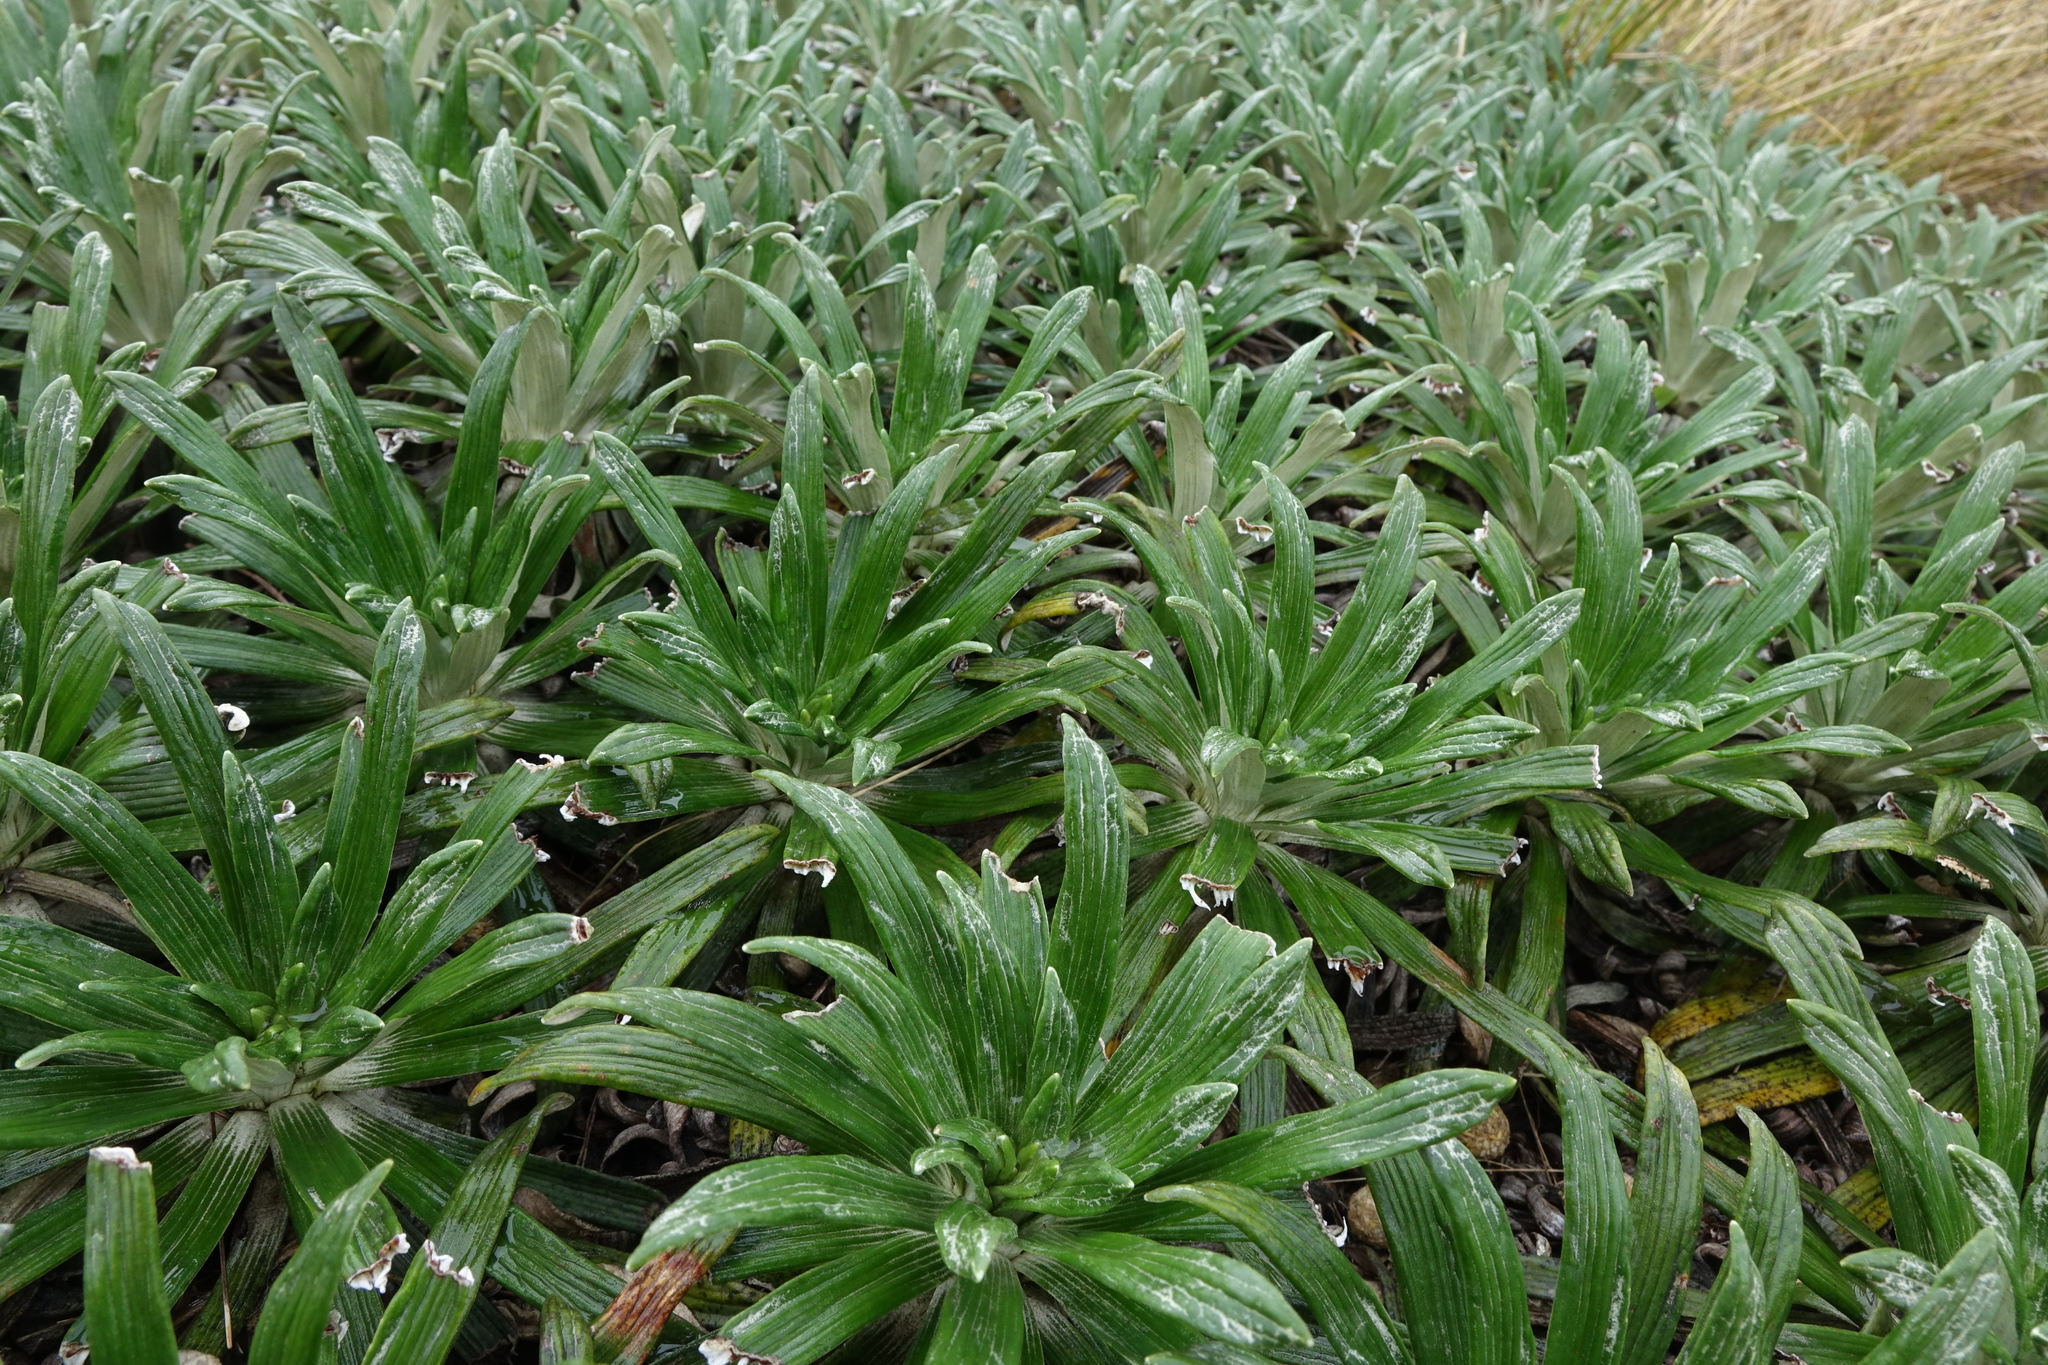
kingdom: Plantae
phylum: Tracheophyta
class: Magnoliopsida
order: Asterales
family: Asteraceae
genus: Celmisia
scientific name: Celmisia viscosa
